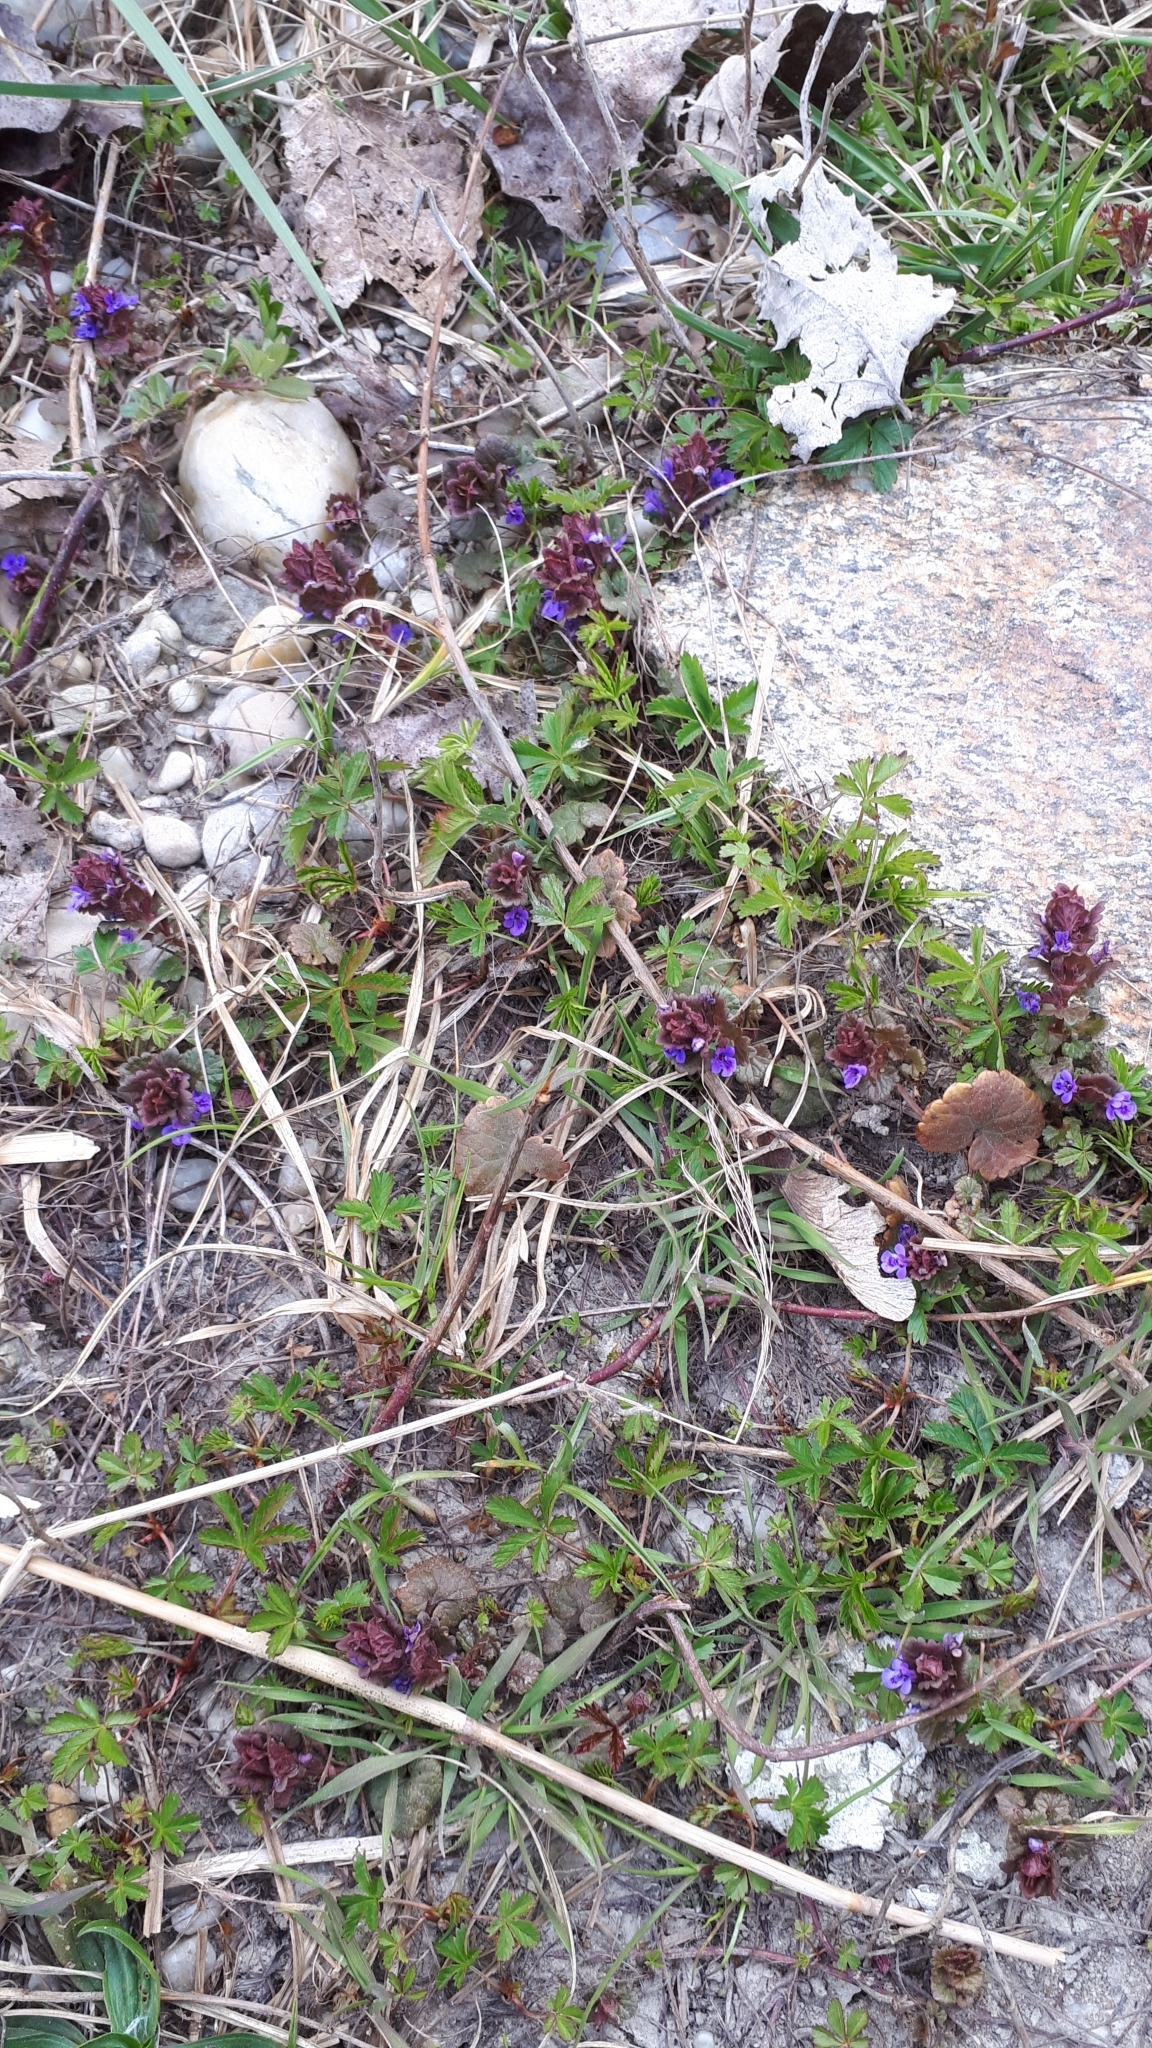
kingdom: Plantae
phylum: Tracheophyta
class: Magnoliopsida
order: Lamiales
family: Lamiaceae
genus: Glechoma
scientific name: Glechoma hederacea
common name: Ground ivy
